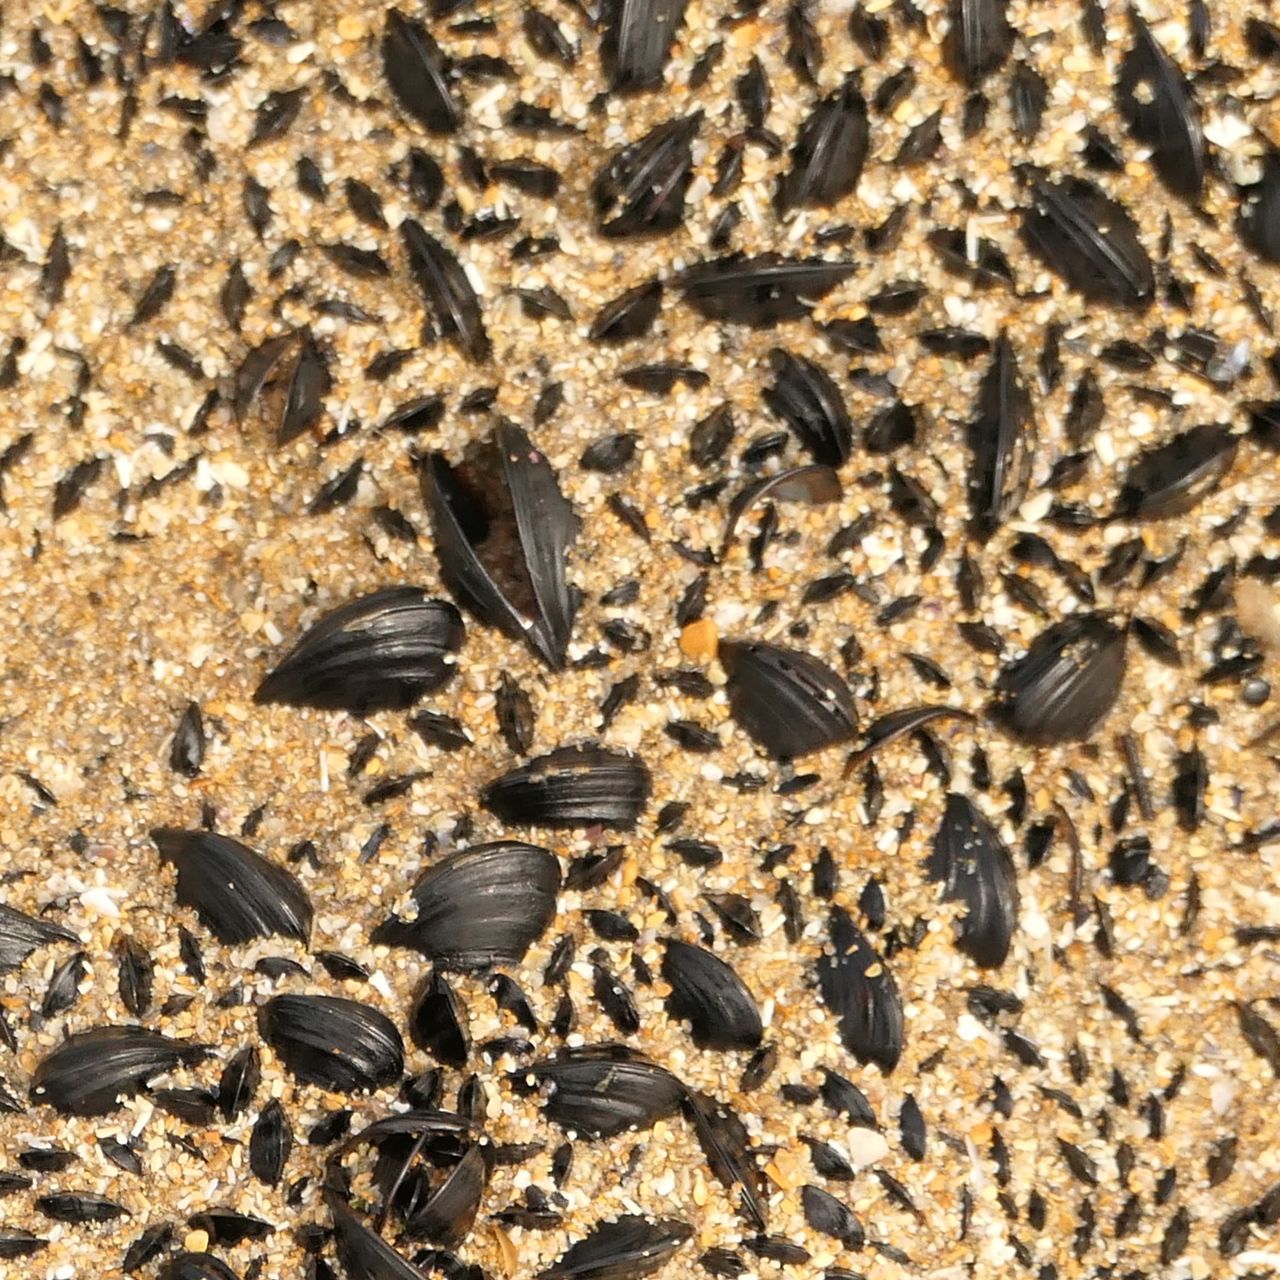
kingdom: Animalia
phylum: Mollusca
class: Bivalvia
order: Mytilida
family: Mytilidae
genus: Xenostrobus
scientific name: Xenostrobus pulex
